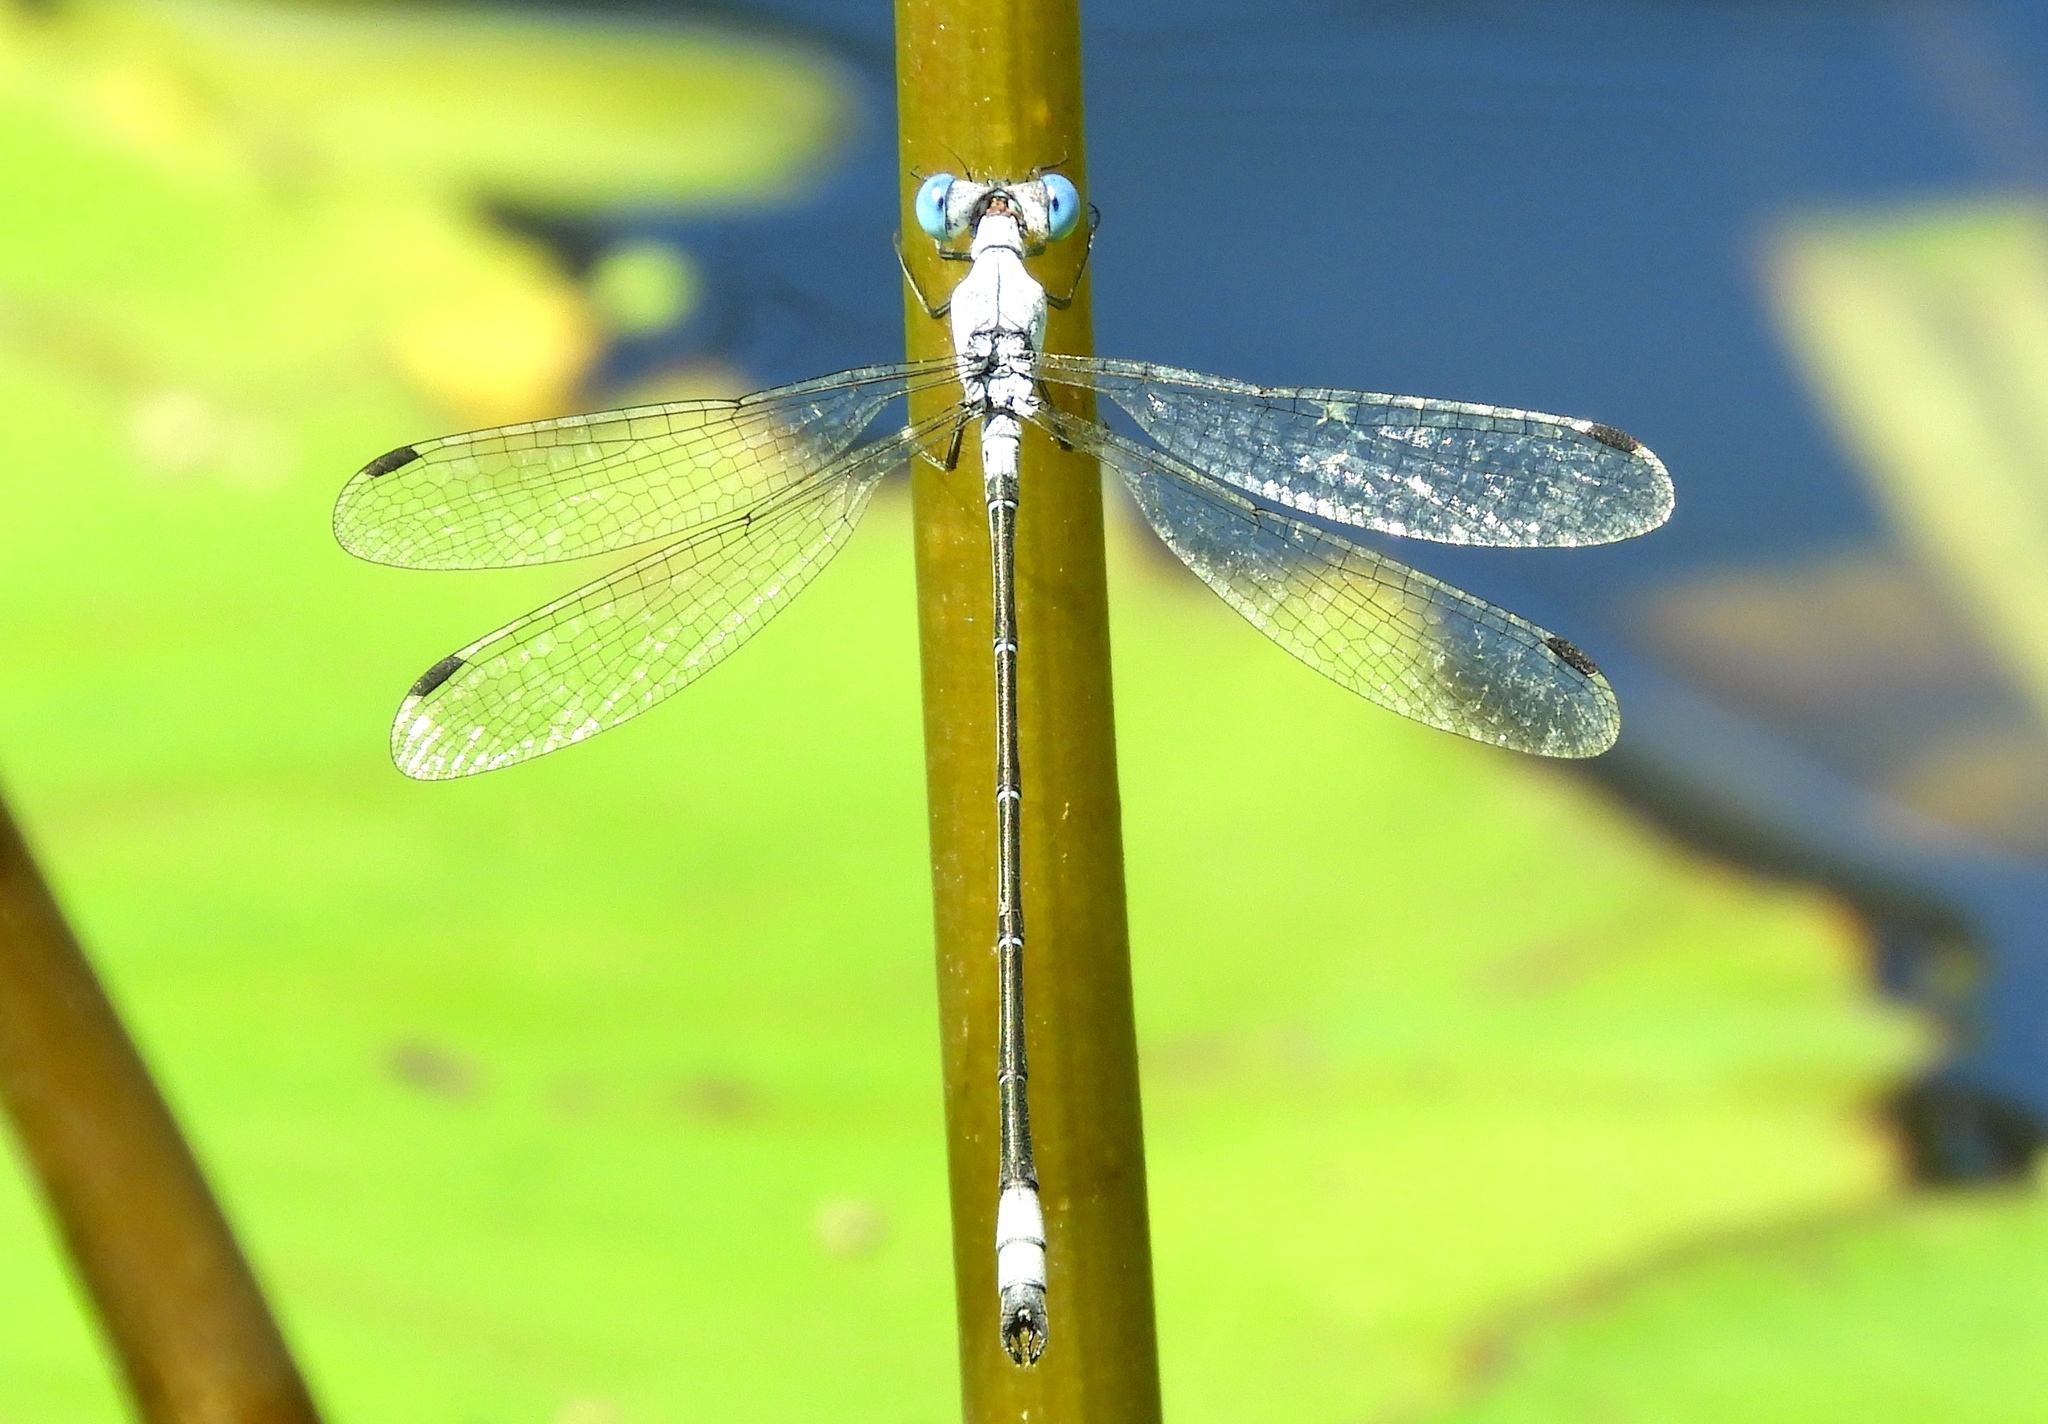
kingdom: Animalia
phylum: Arthropoda
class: Insecta
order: Odonata
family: Lestidae
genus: Lestes
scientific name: Lestes sigma
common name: Chalky spreadwing
